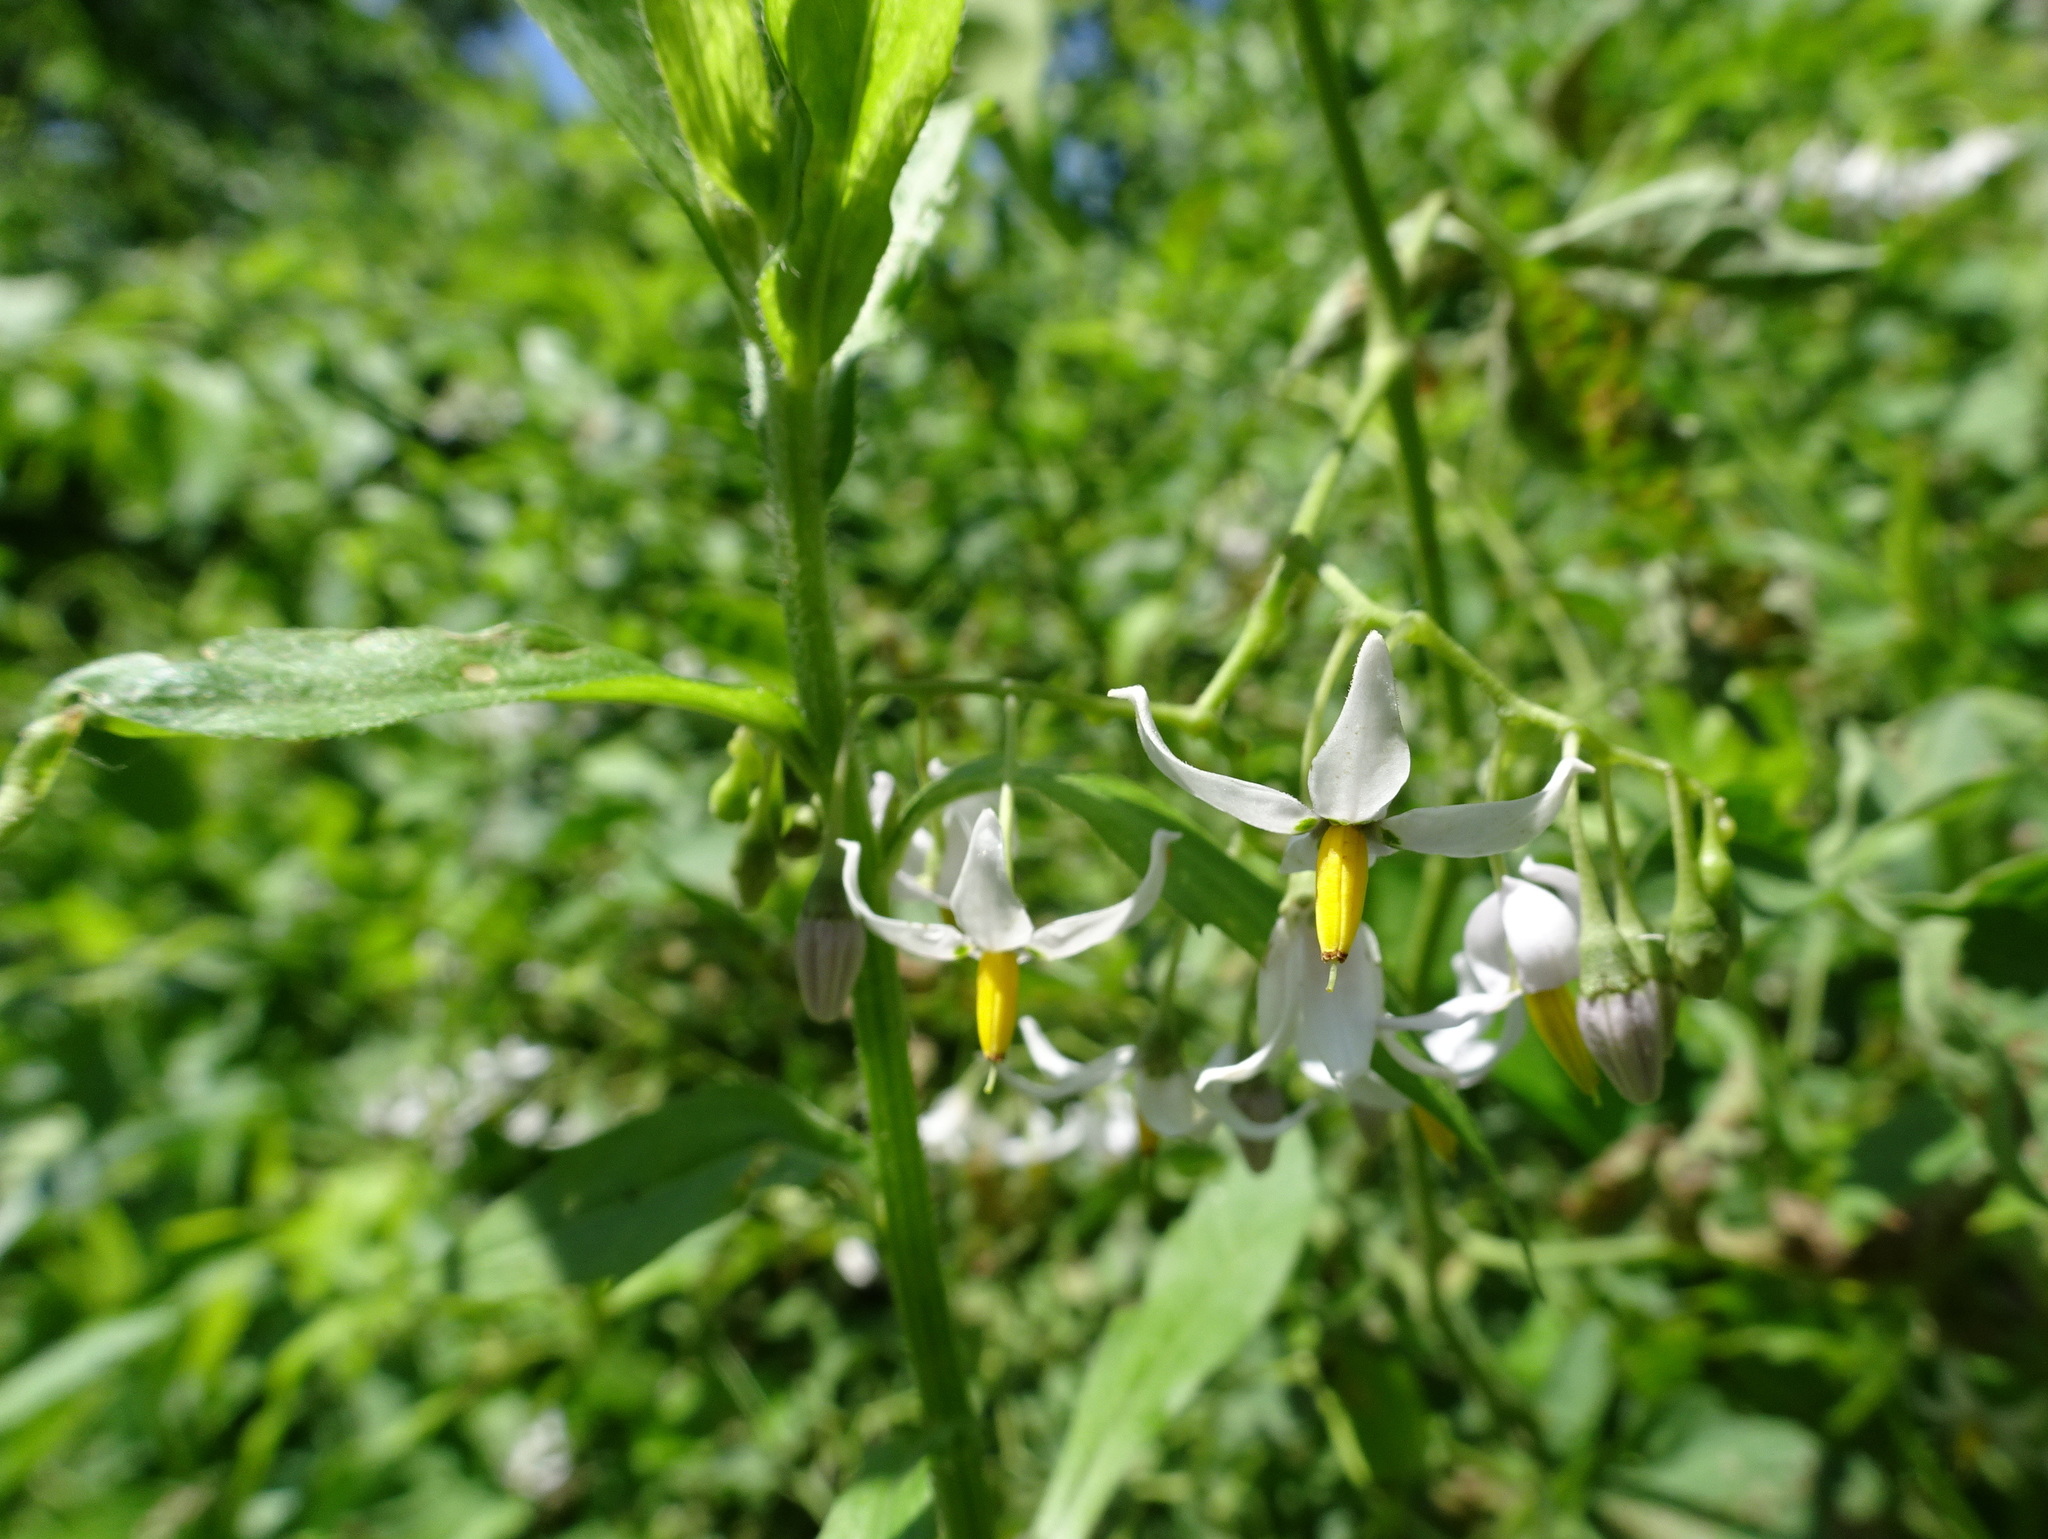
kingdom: Plantae
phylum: Tracheophyta
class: Magnoliopsida
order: Solanales
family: Solanaceae
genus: Solanum
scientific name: Solanum dulcamara
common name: Climbing nightshade
